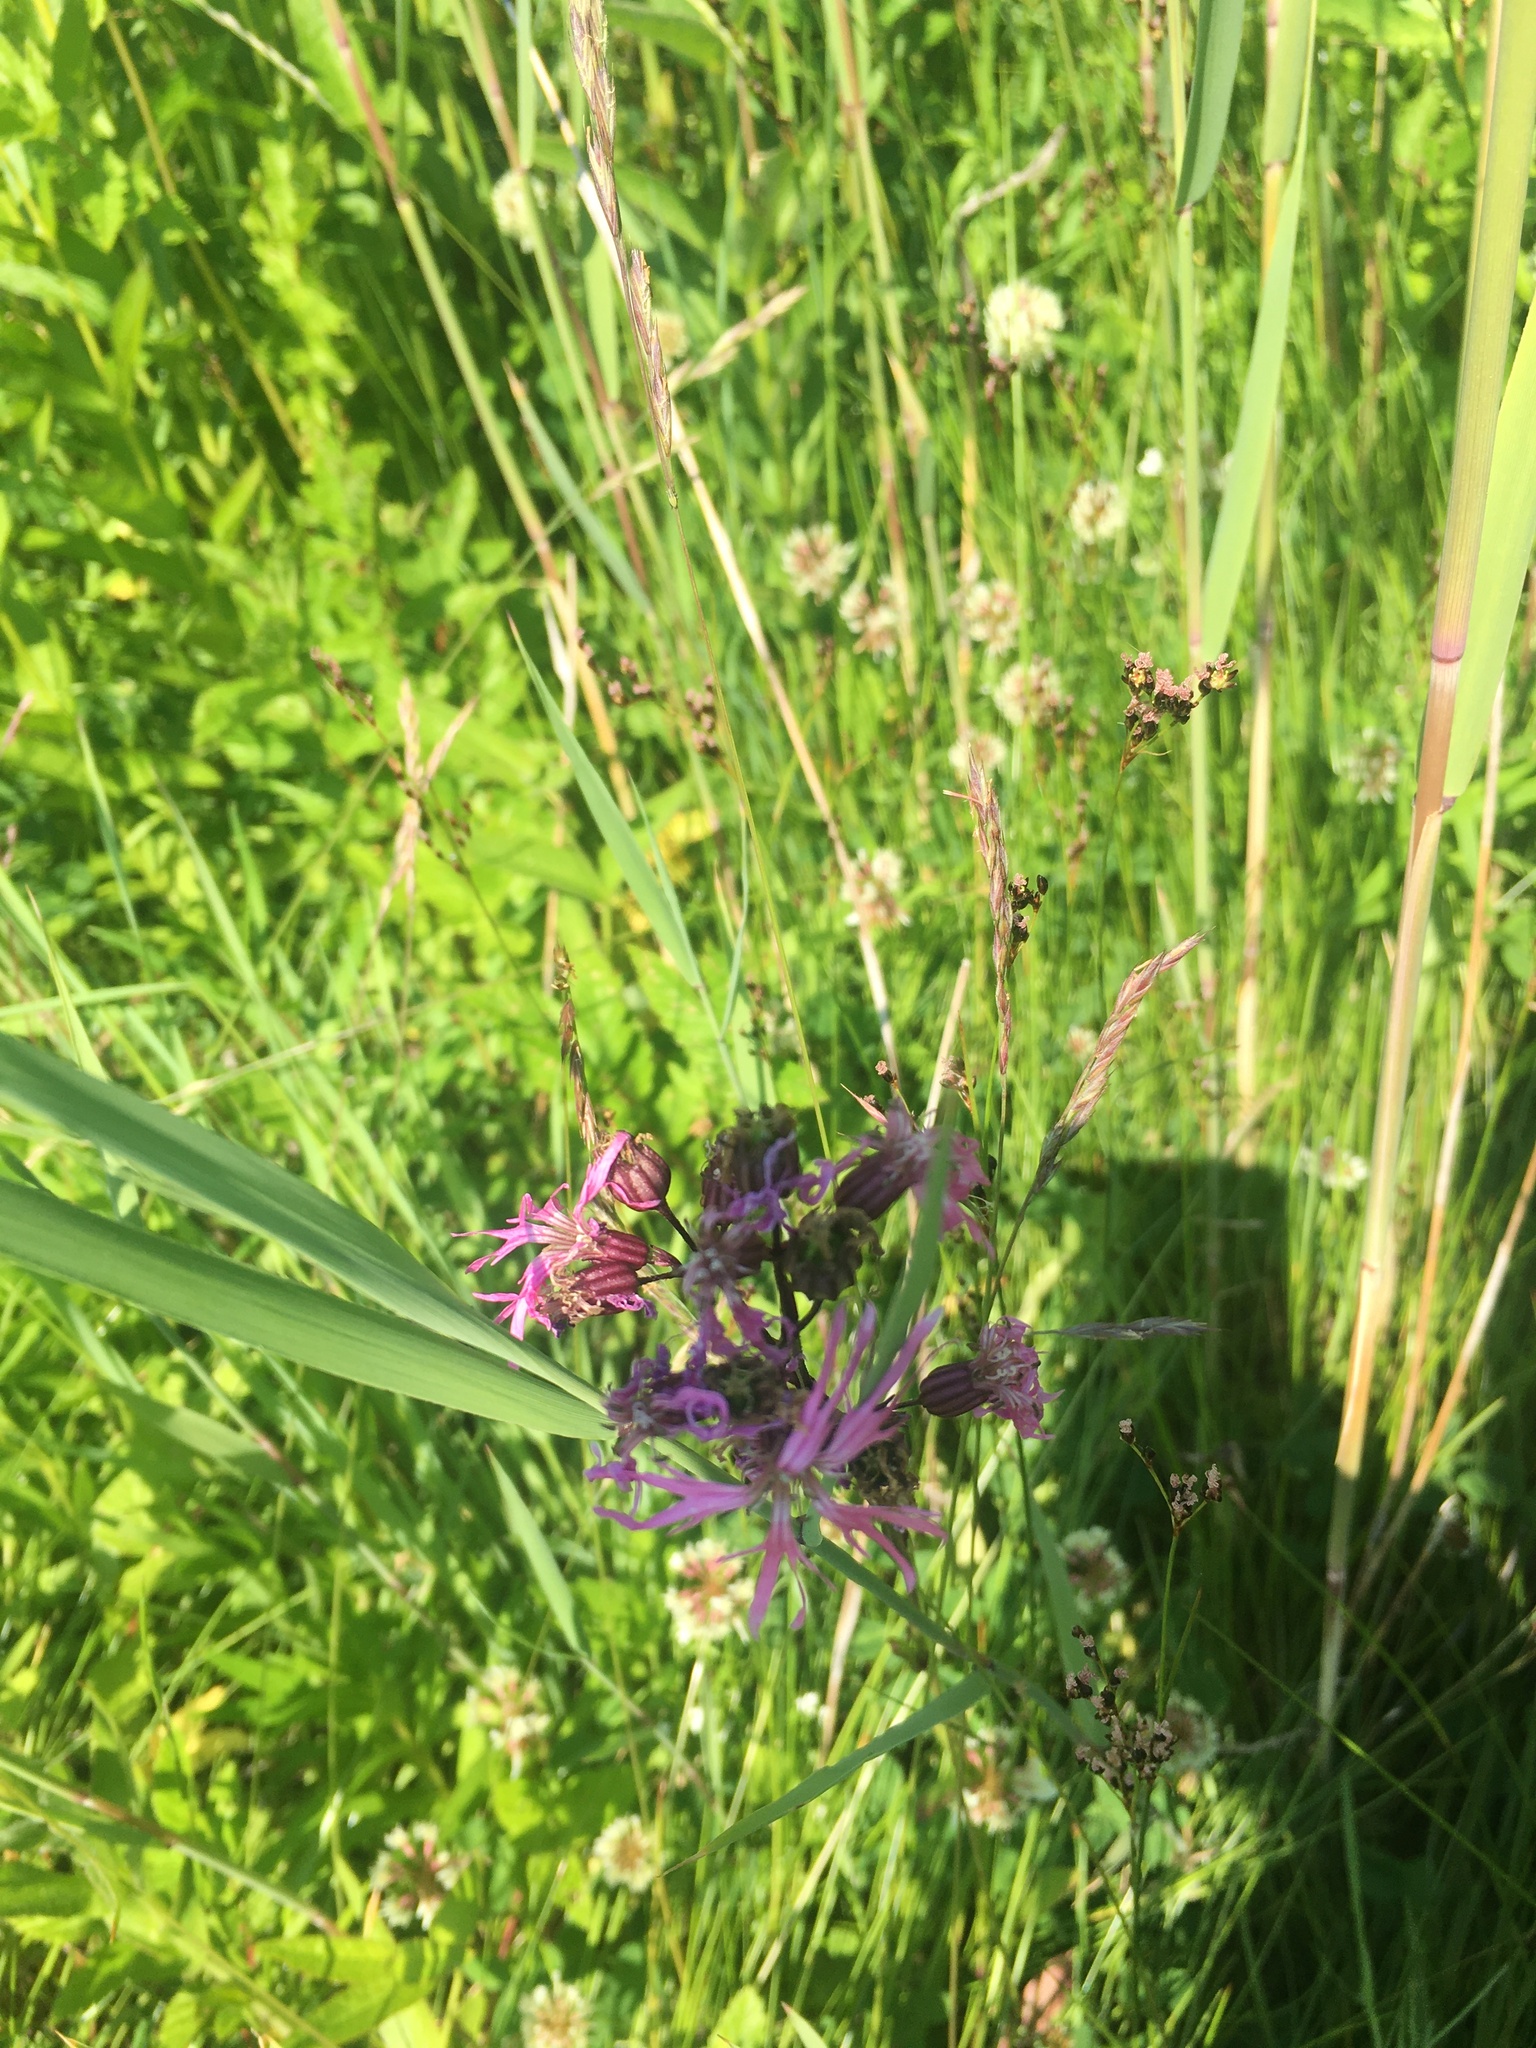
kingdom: Plantae
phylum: Tracheophyta
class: Magnoliopsida
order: Caryophyllales
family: Caryophyllaceae
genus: Silene
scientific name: Silene flos-cuculi
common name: Ragged-robin
